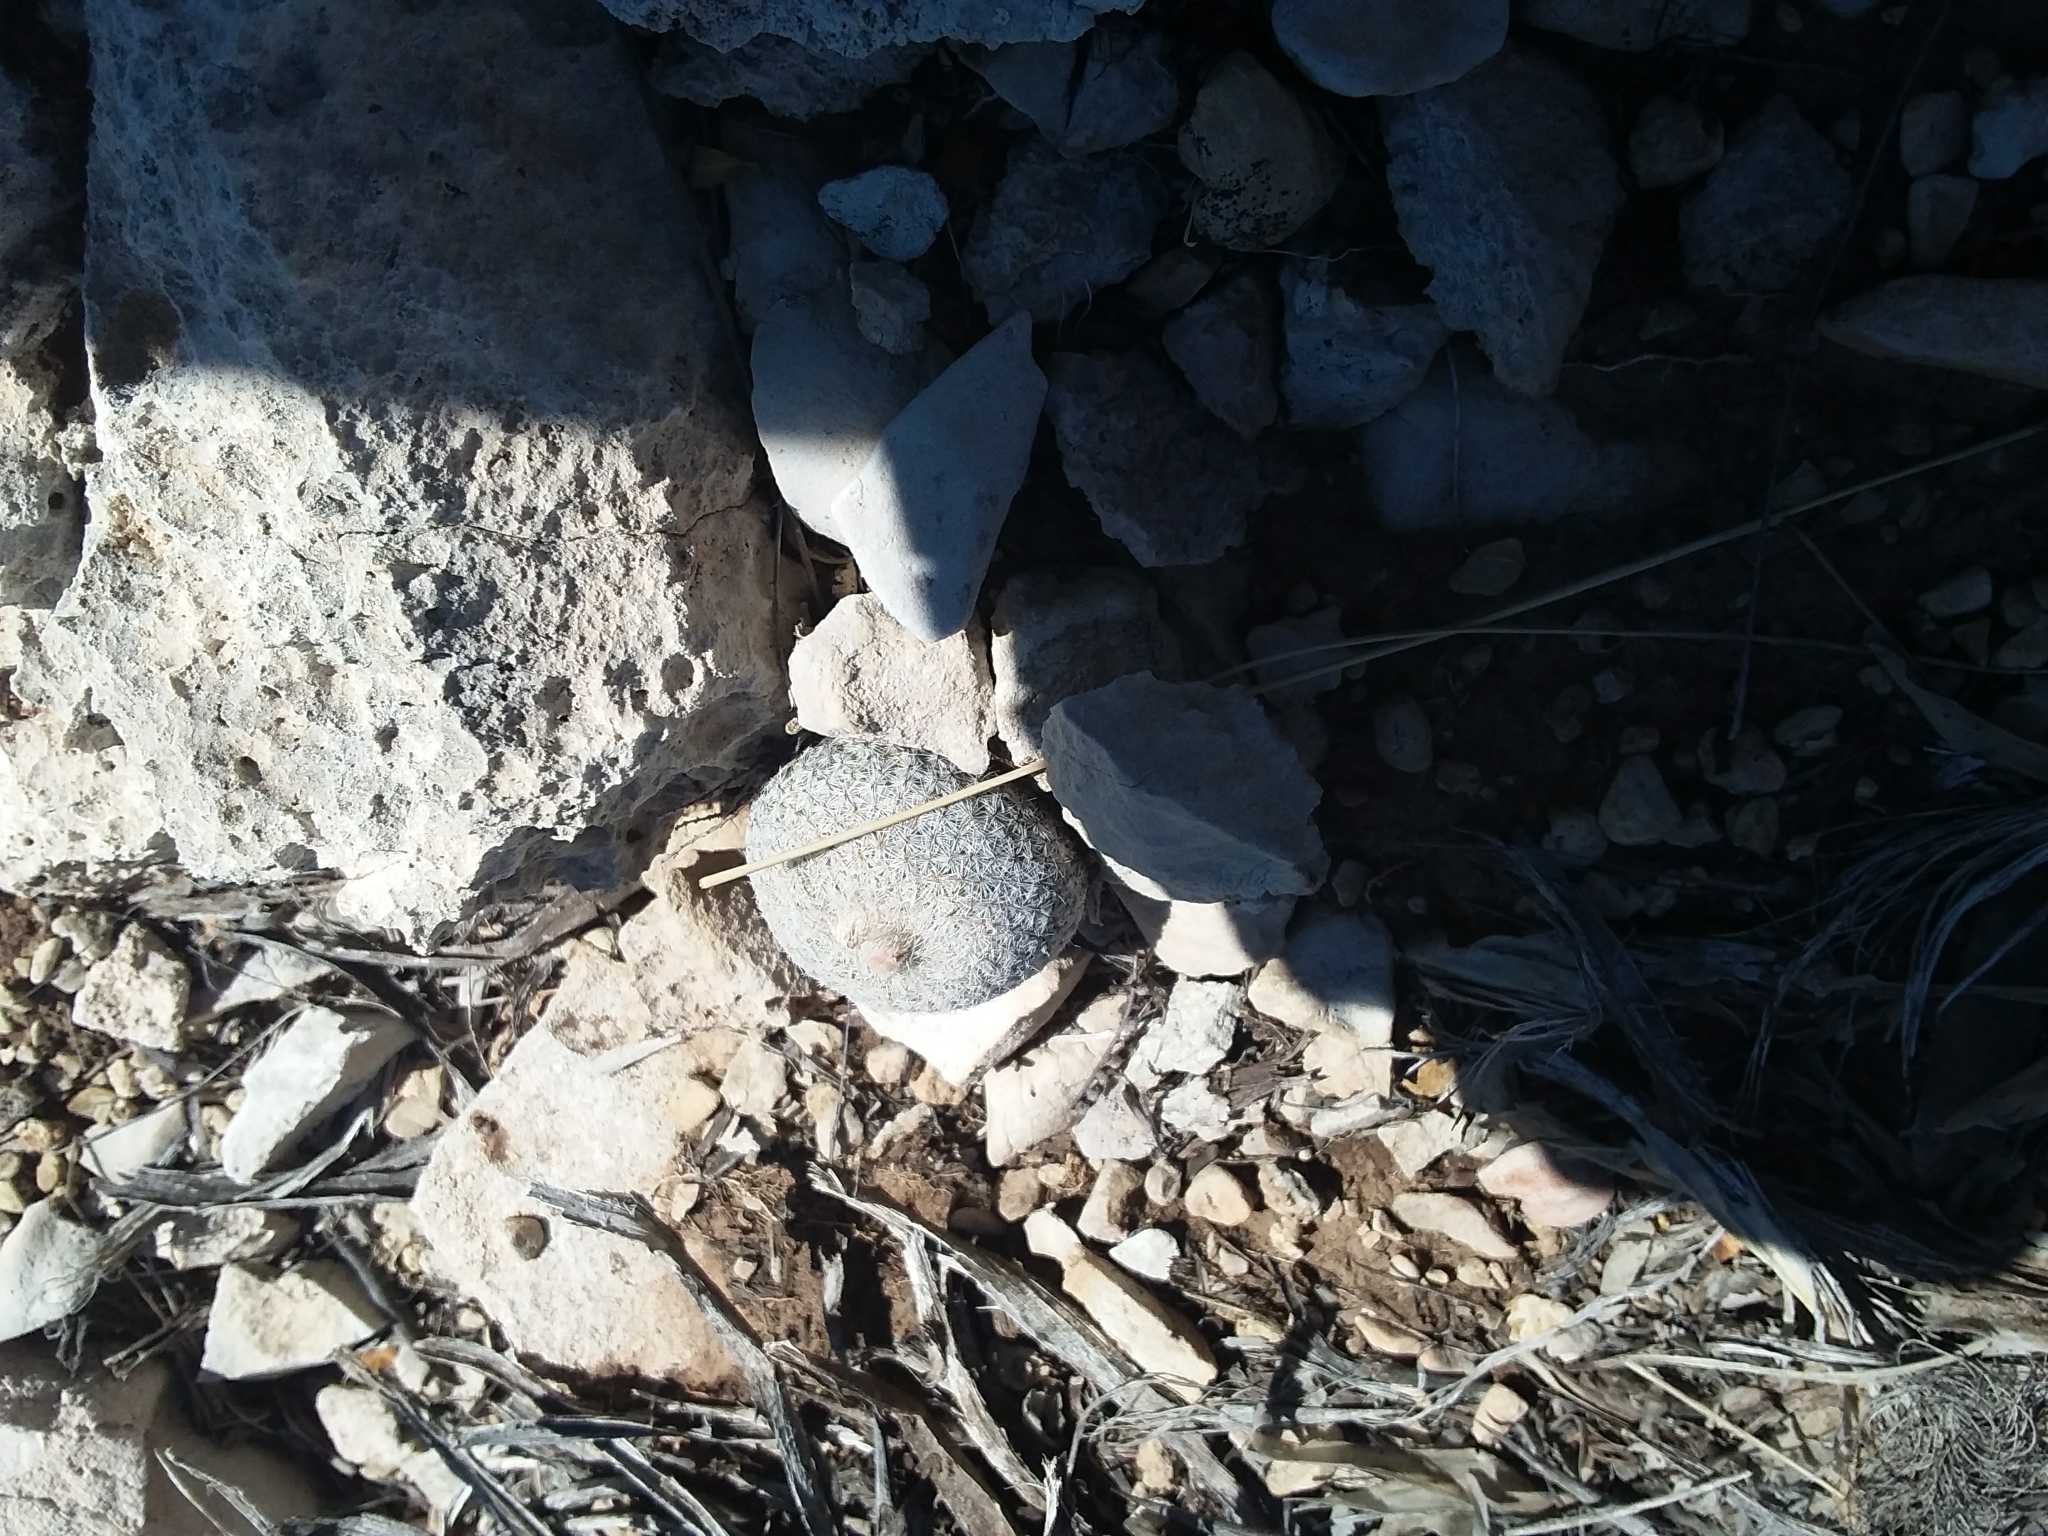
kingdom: Plantae
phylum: Tracheophyta
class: Magnoliopsida
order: Caryophyllales
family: Cactaceae
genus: Epithelantha
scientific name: Epithelantha micromeris
